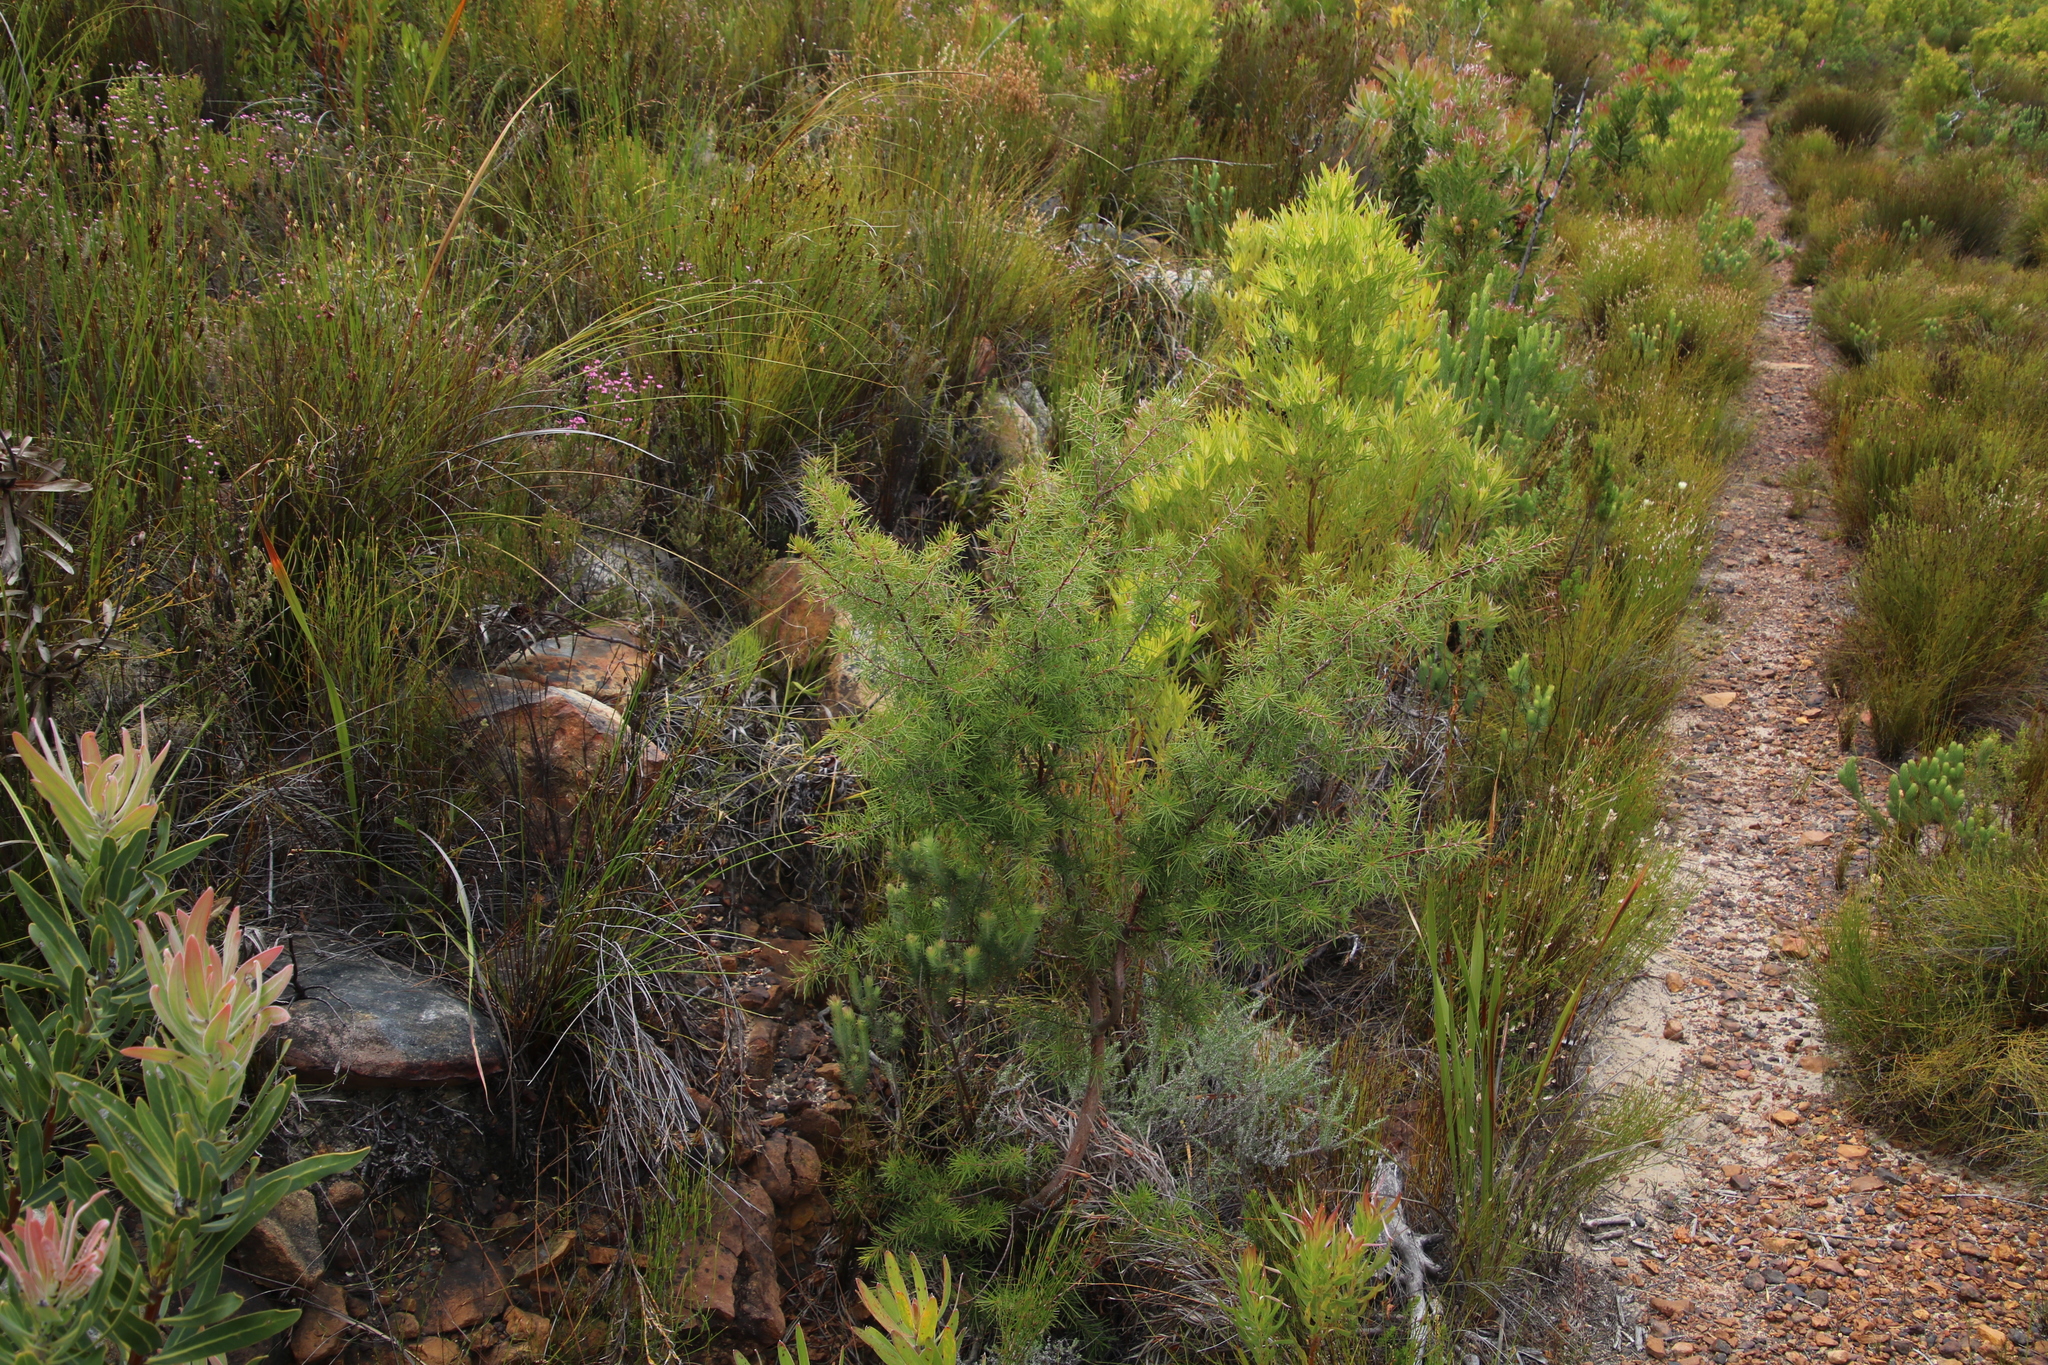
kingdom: Plantae
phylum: Tracheophyta
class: Magnoliopsida
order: Proteales
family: Proteaceae
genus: Hakea
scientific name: Hakea sericea
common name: Needle bush
